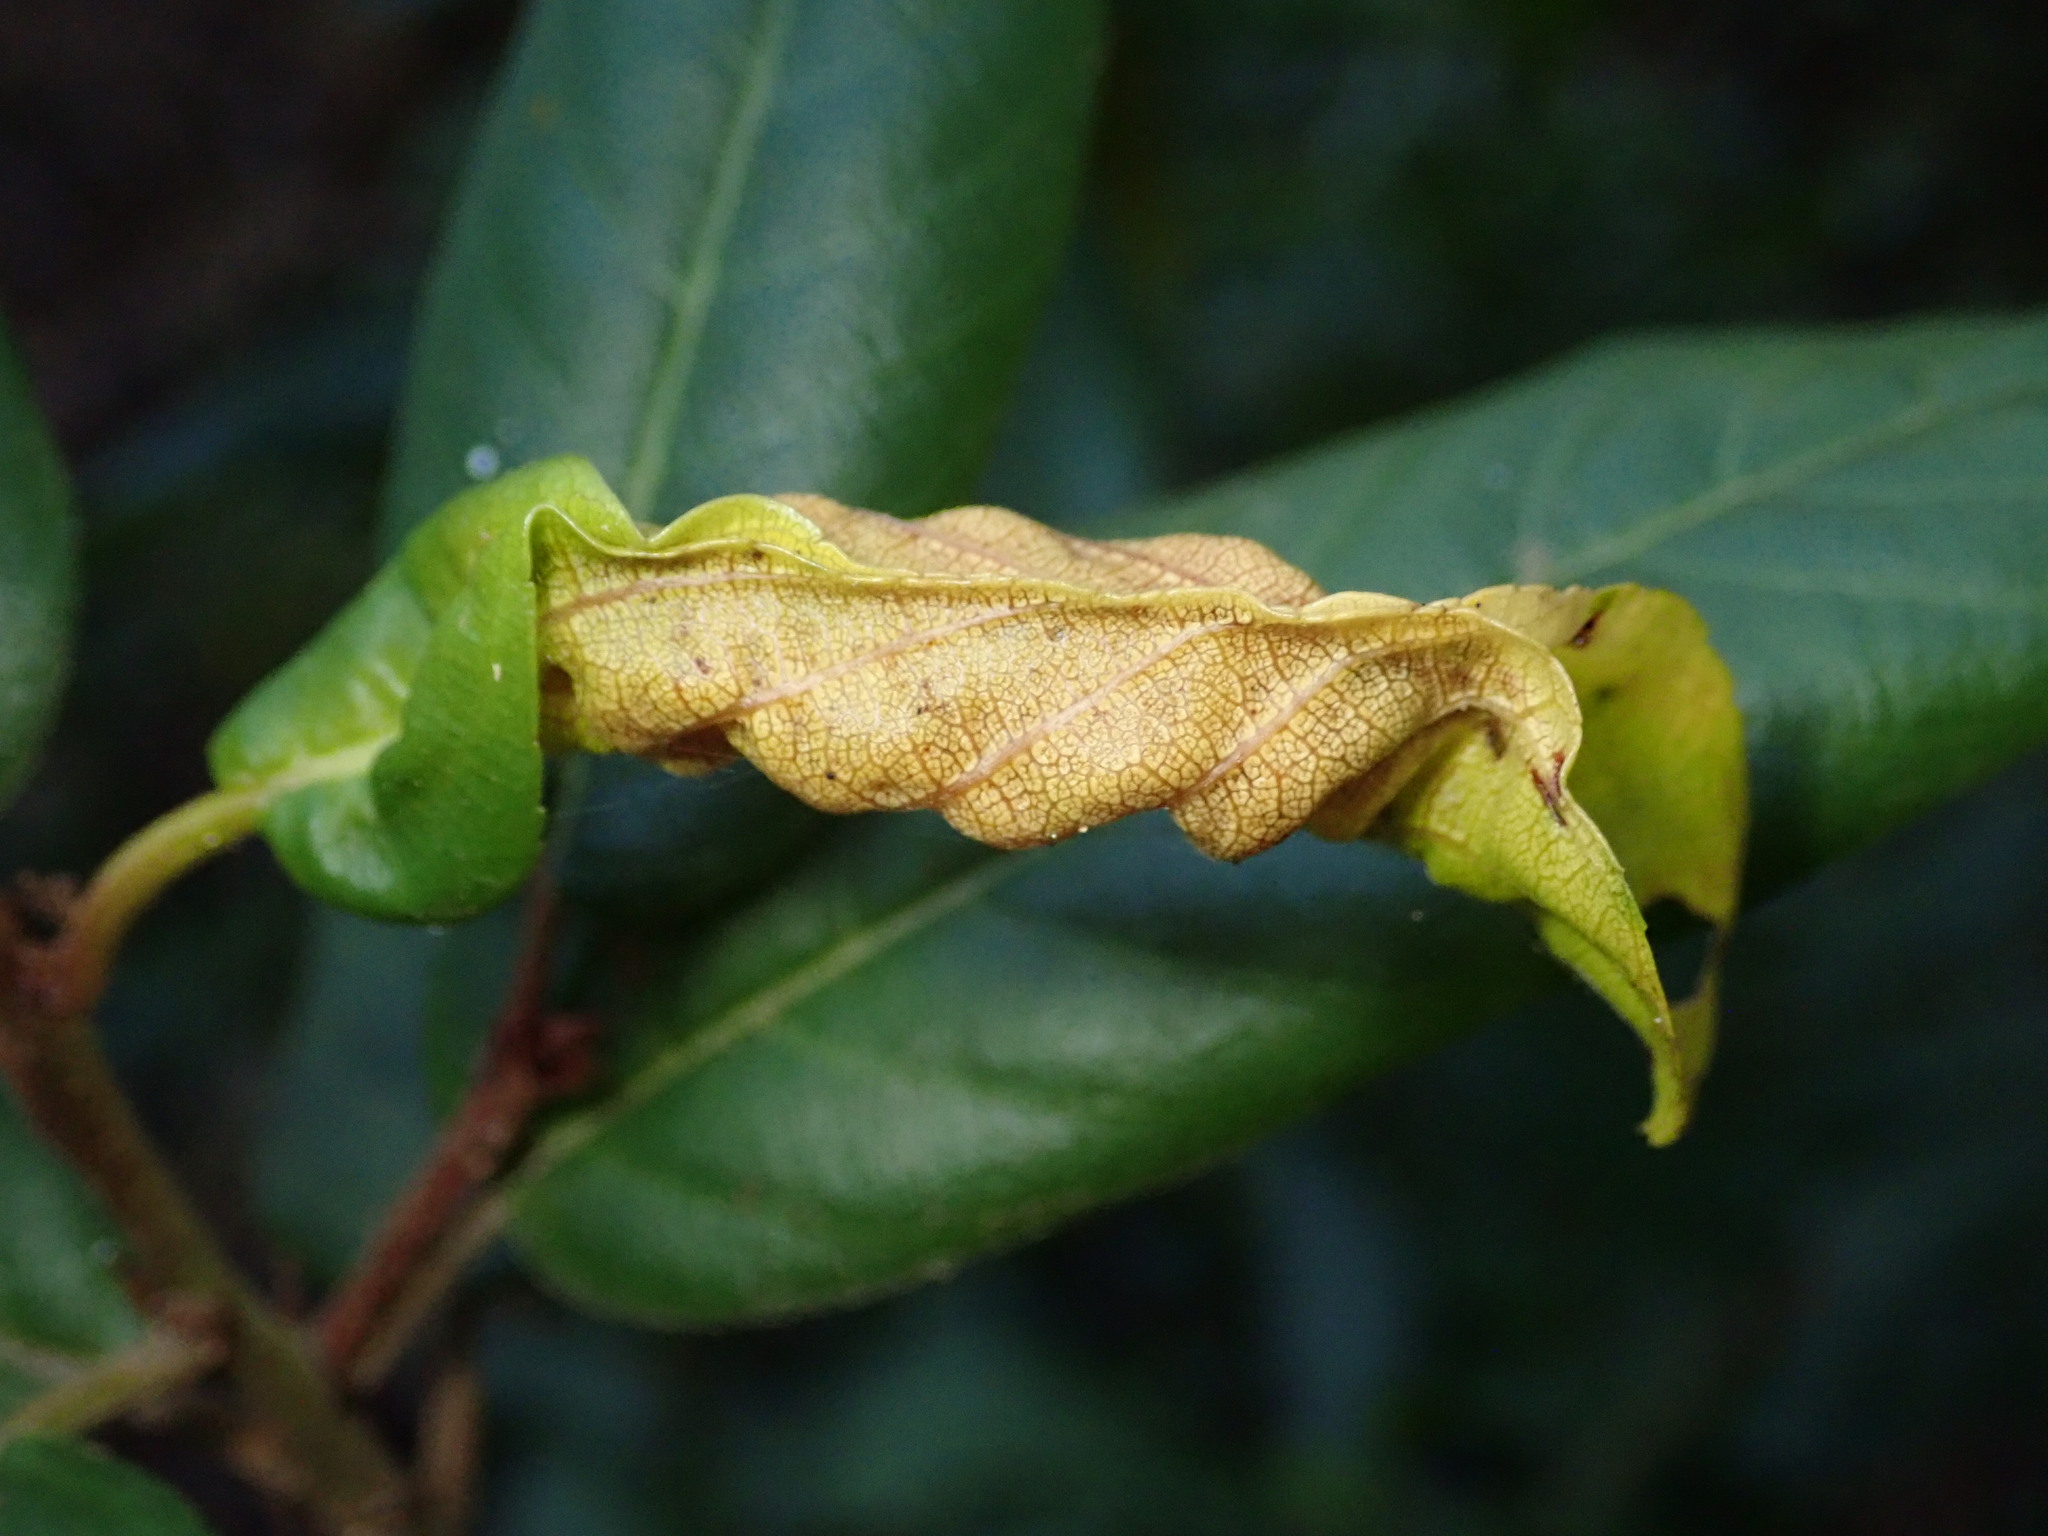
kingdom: Animalia
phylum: Arthropoda
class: Insecta
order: Lepidoptera
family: Cosmopterigidae
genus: Sorhagenia
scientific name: Sorhagenia nimbosus
